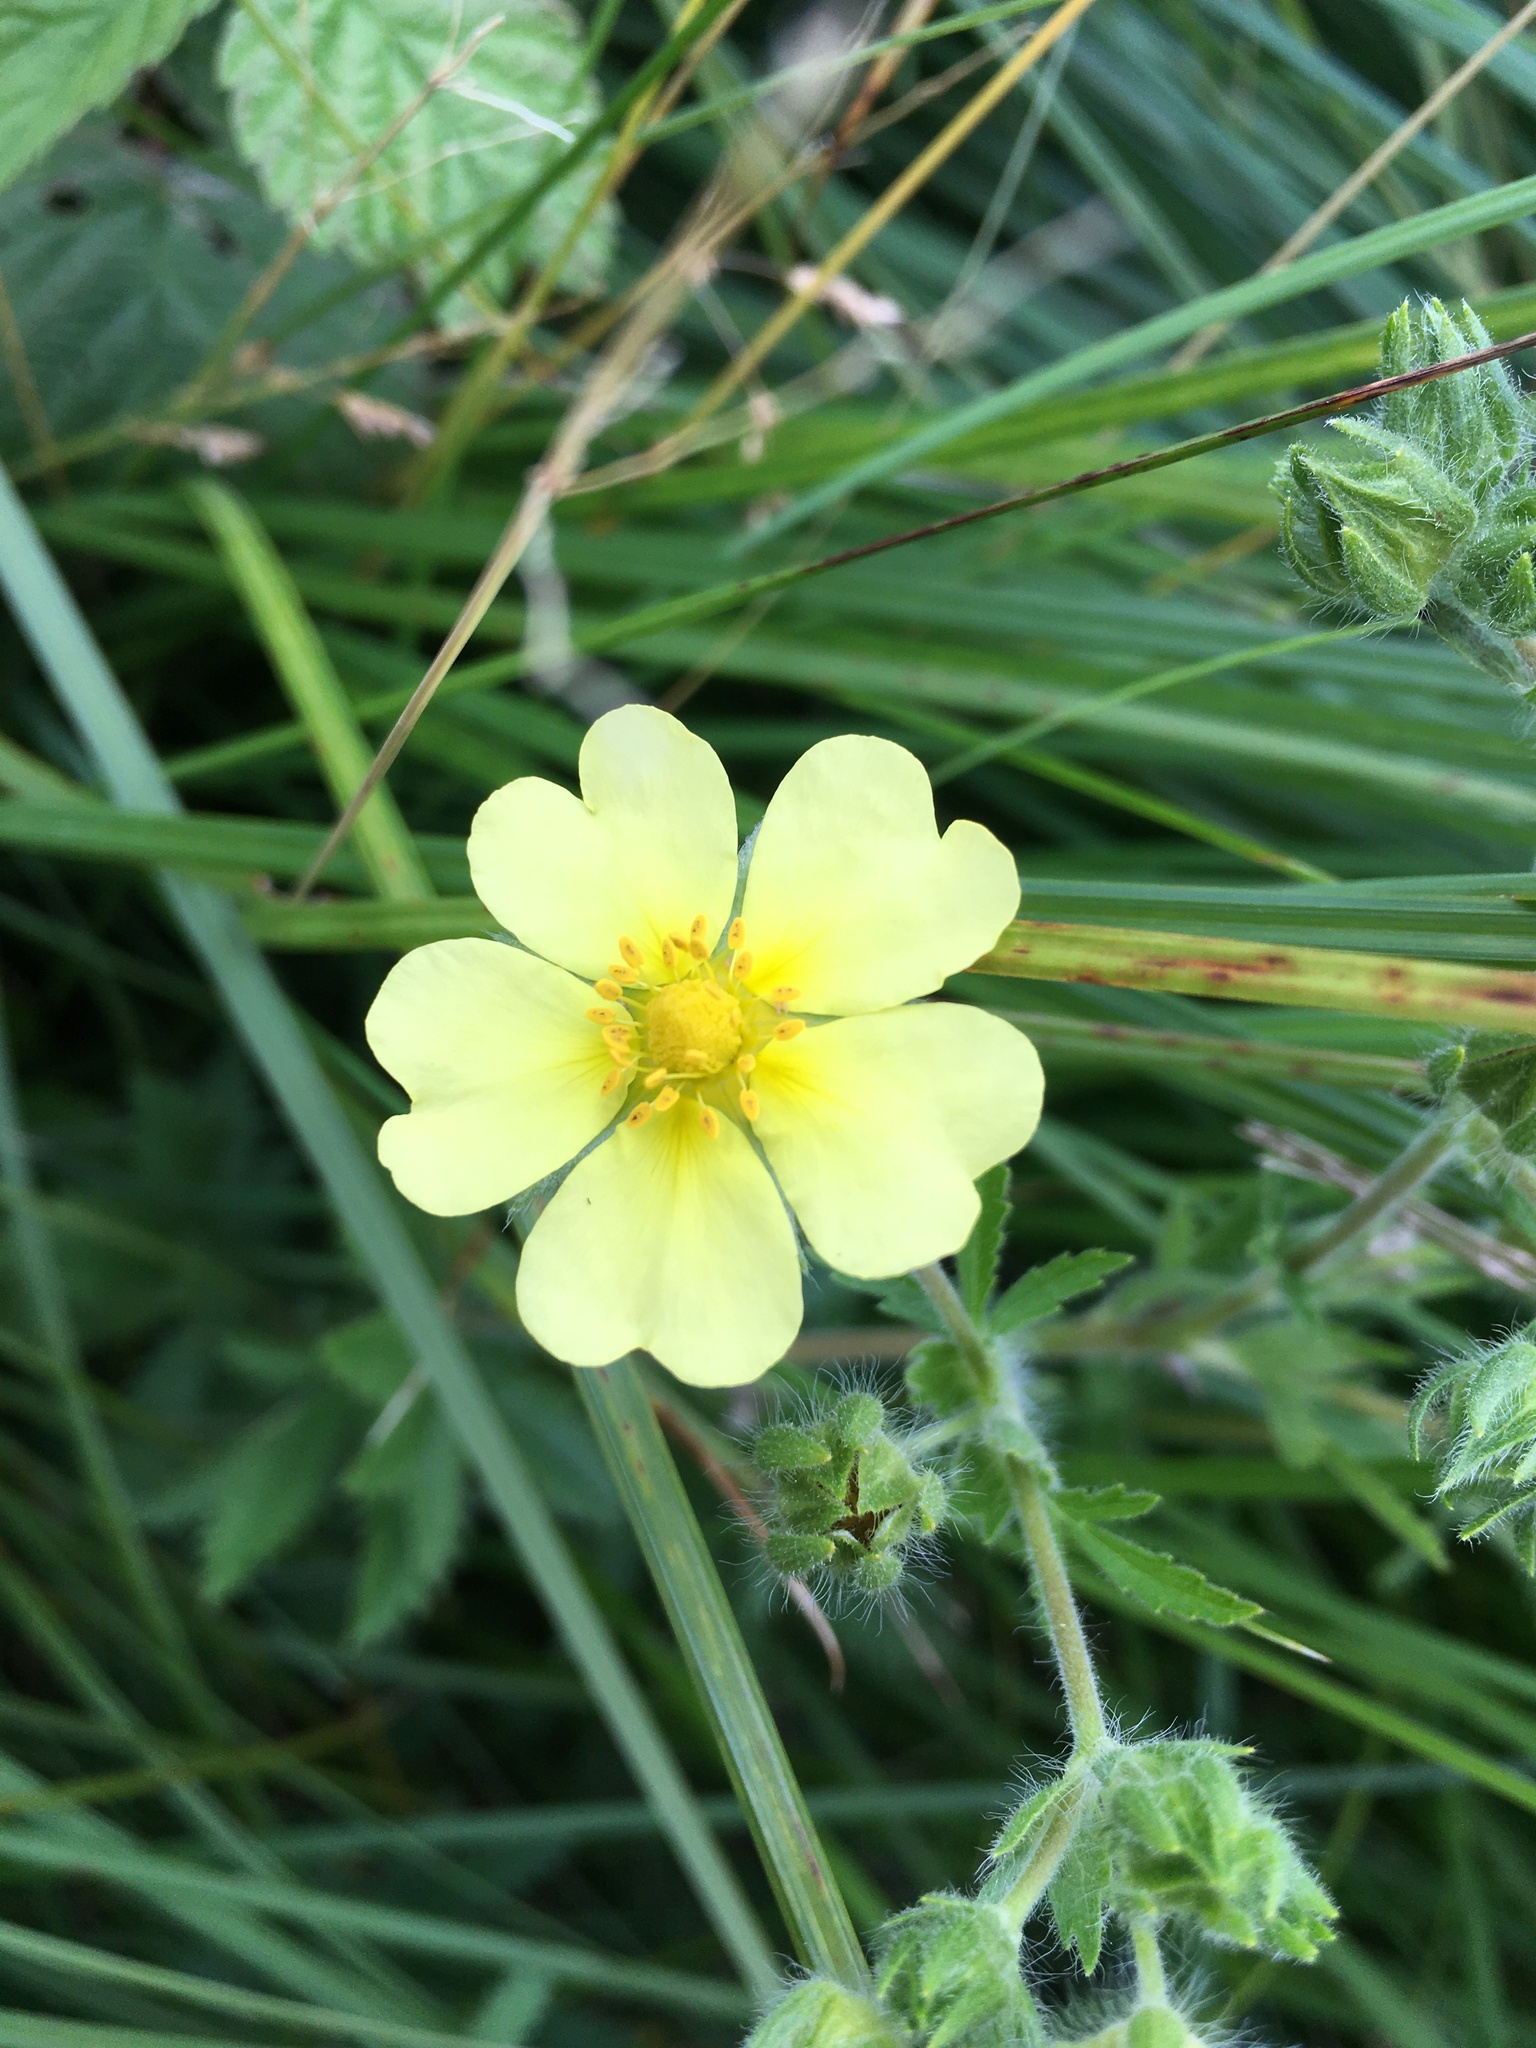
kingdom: Plantae
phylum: Tracheophyta
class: Magnoliopsida
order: Rosales
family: Rosaceae
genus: Potentilla
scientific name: Potentilla recta
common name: Sulphur cinquefoil
